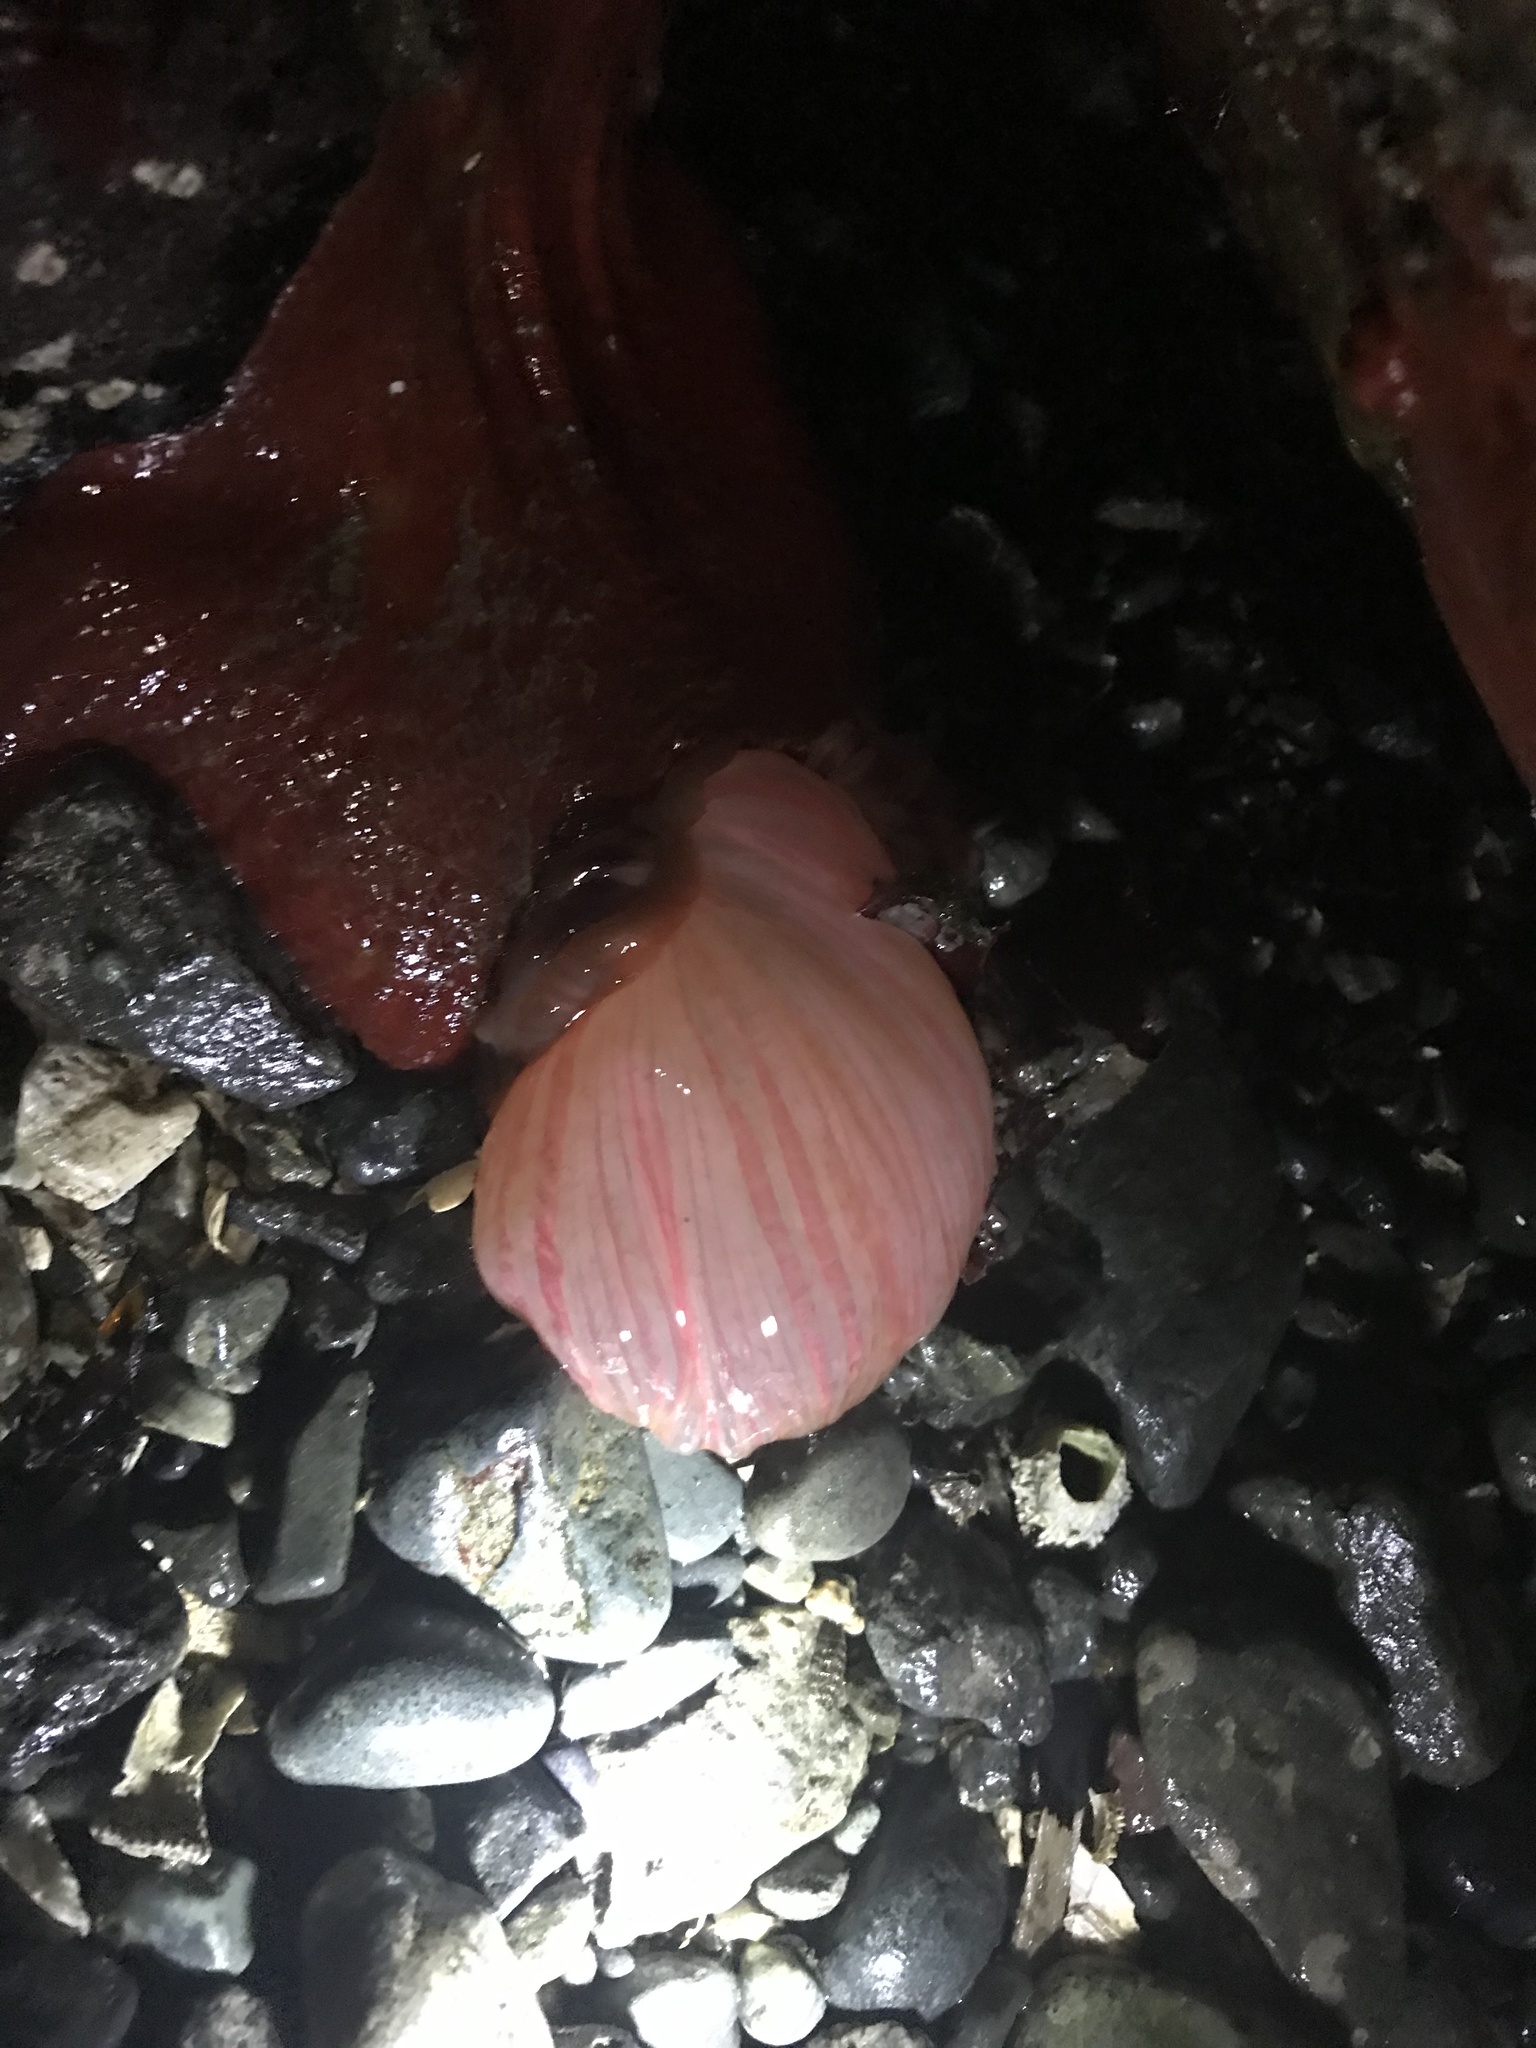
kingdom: Animalia
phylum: Cnidaria
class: Anthozoa
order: Actiniaria
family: Actiniidae
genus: Urticina
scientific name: Urticina grebelnyi
